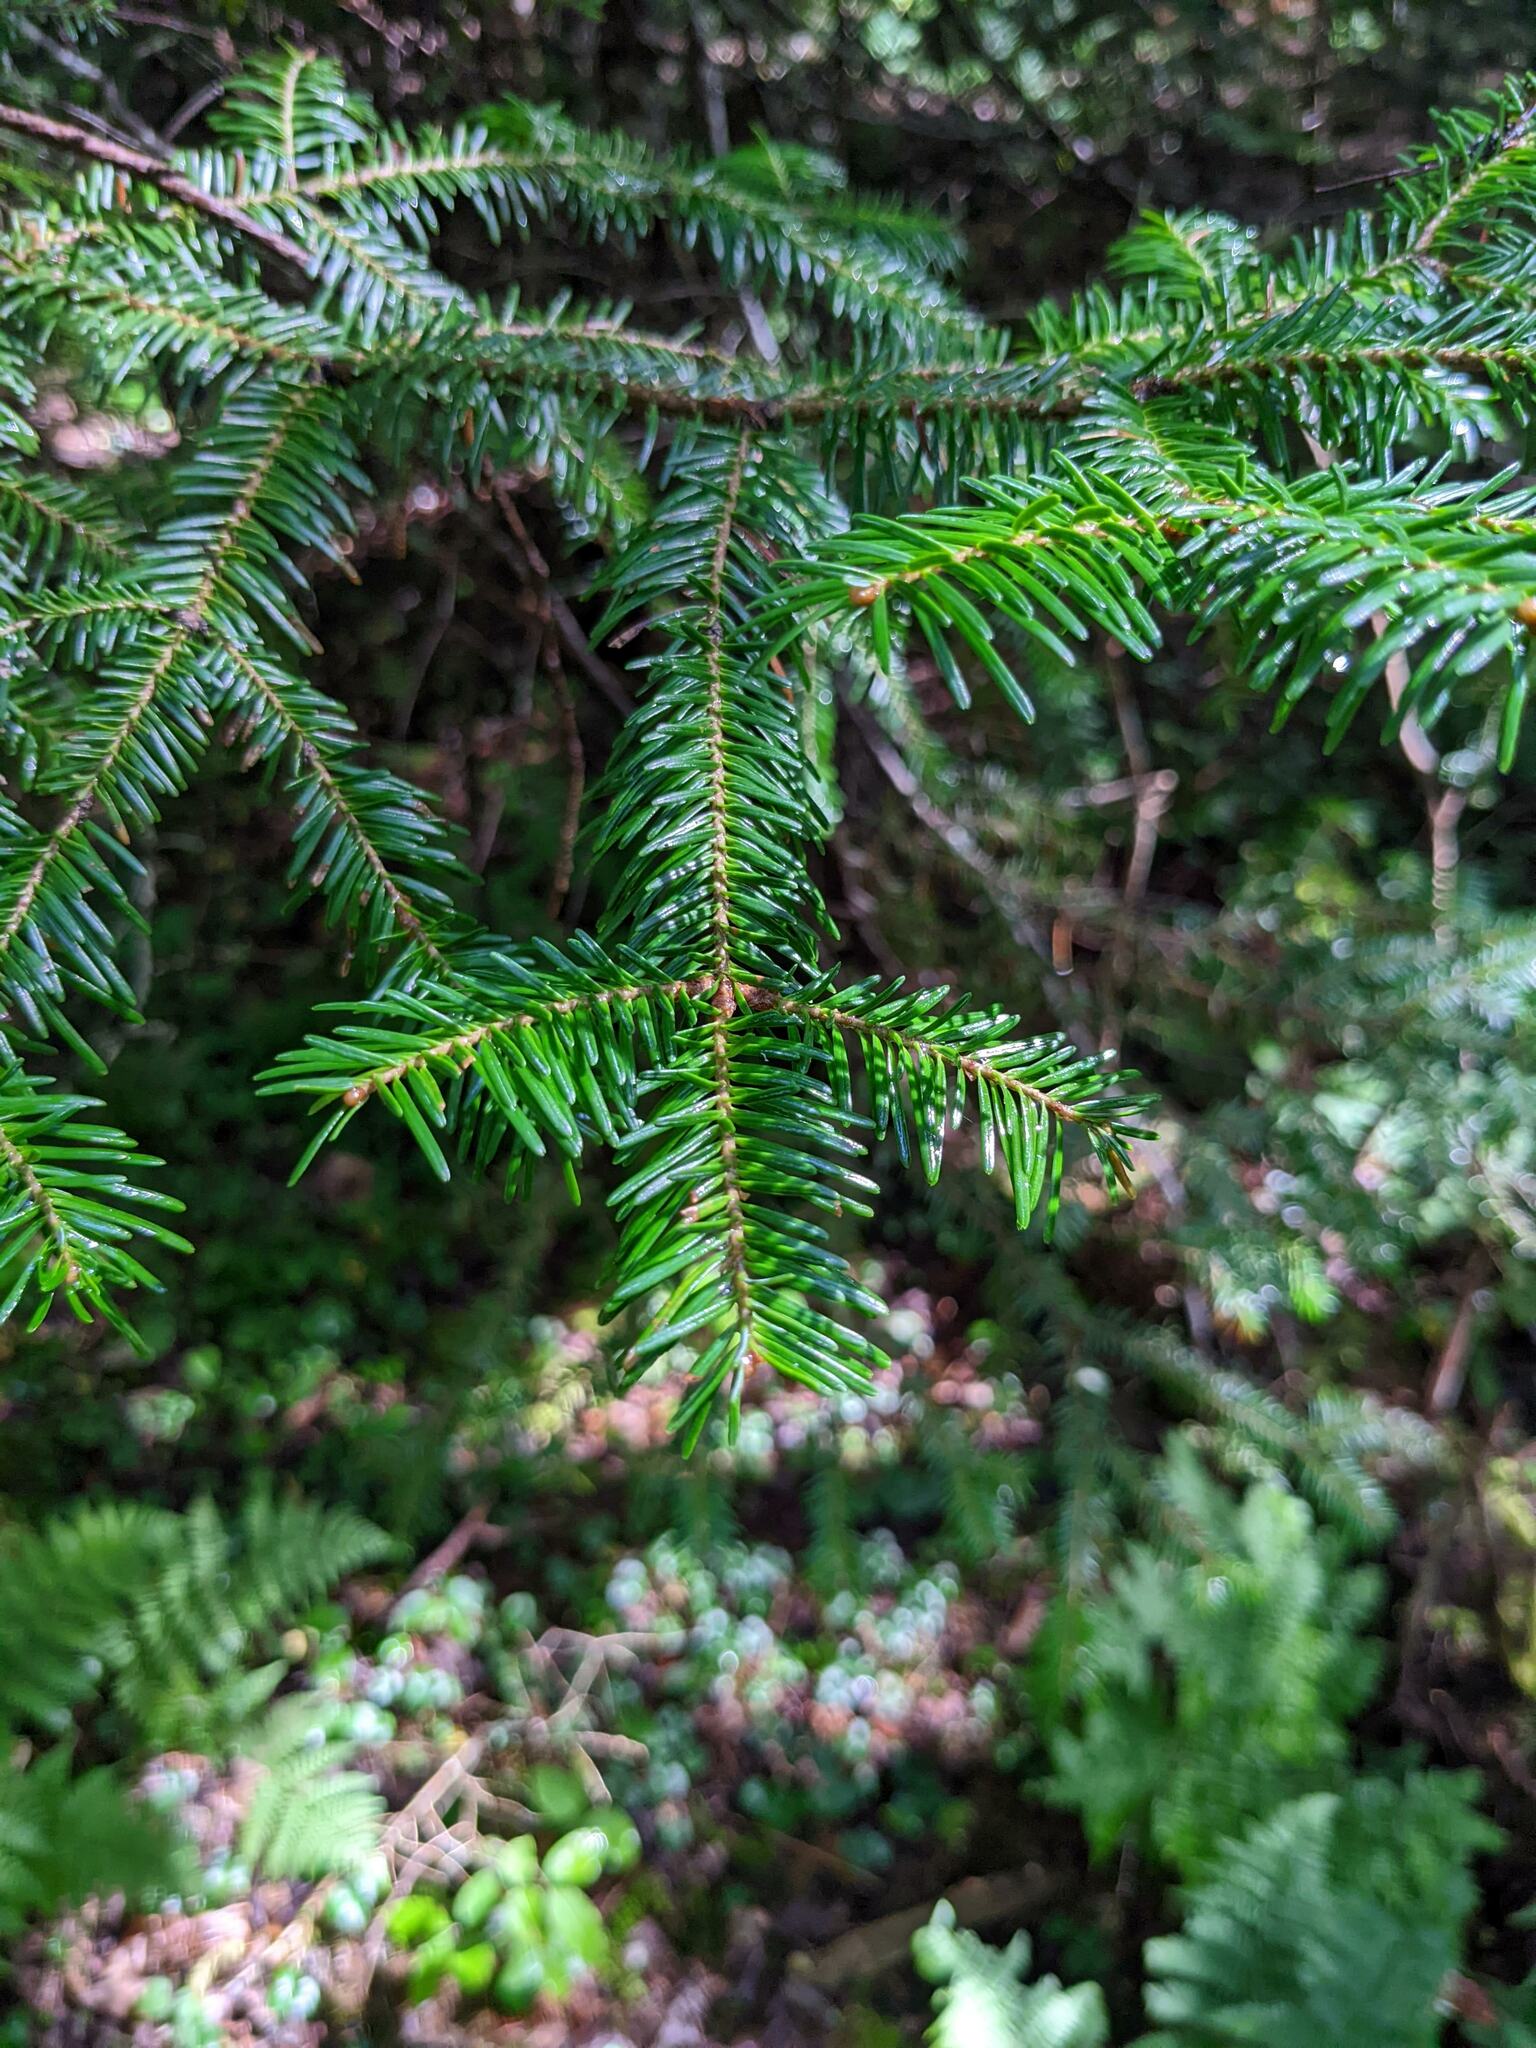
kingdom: Plantae
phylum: Tracheophyta
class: Pinopsida
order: Pinales
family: Pinaceae
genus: Abies
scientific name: Abies balsamea
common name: Balsam fir
